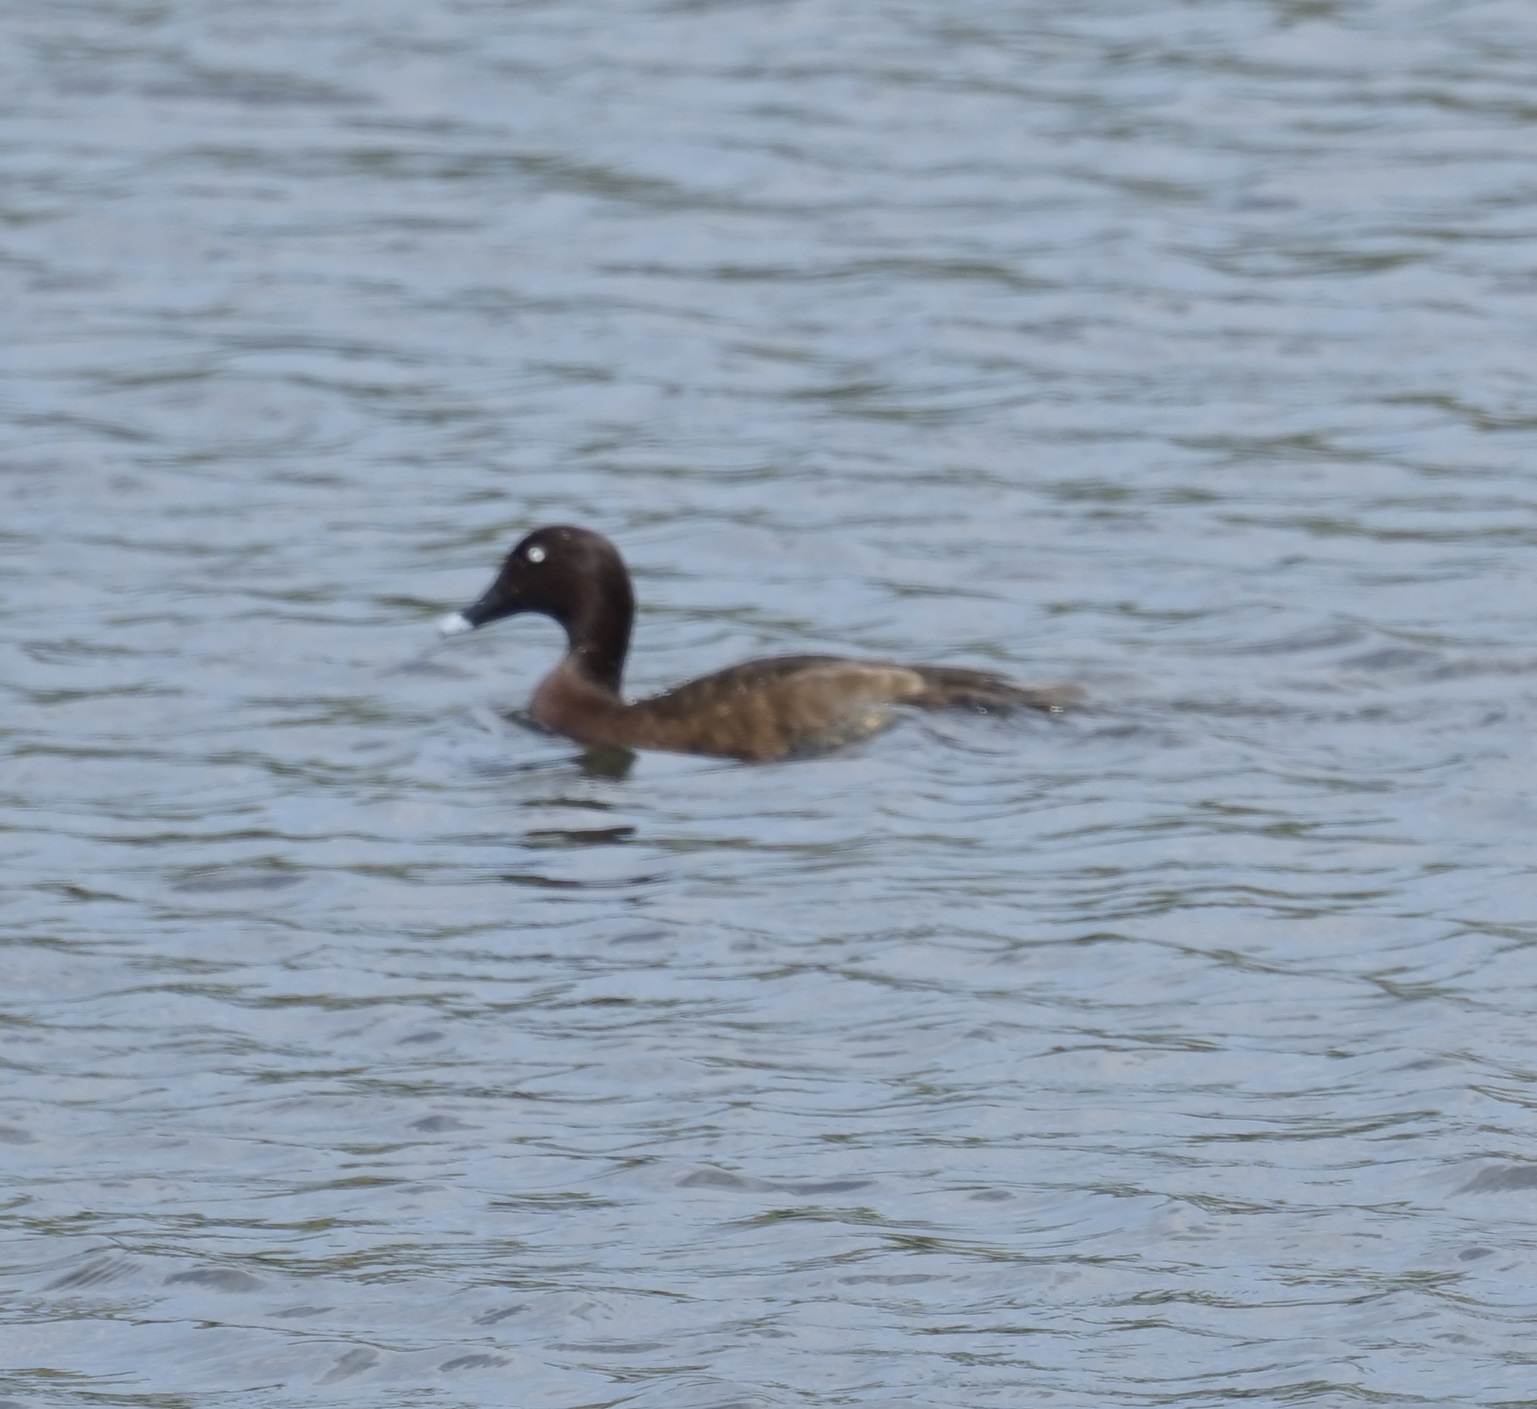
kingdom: Animalia
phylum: Chordata
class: Aves
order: Anseriformes
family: Anatidae
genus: Aythya
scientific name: Aythya australis
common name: Hardhead
